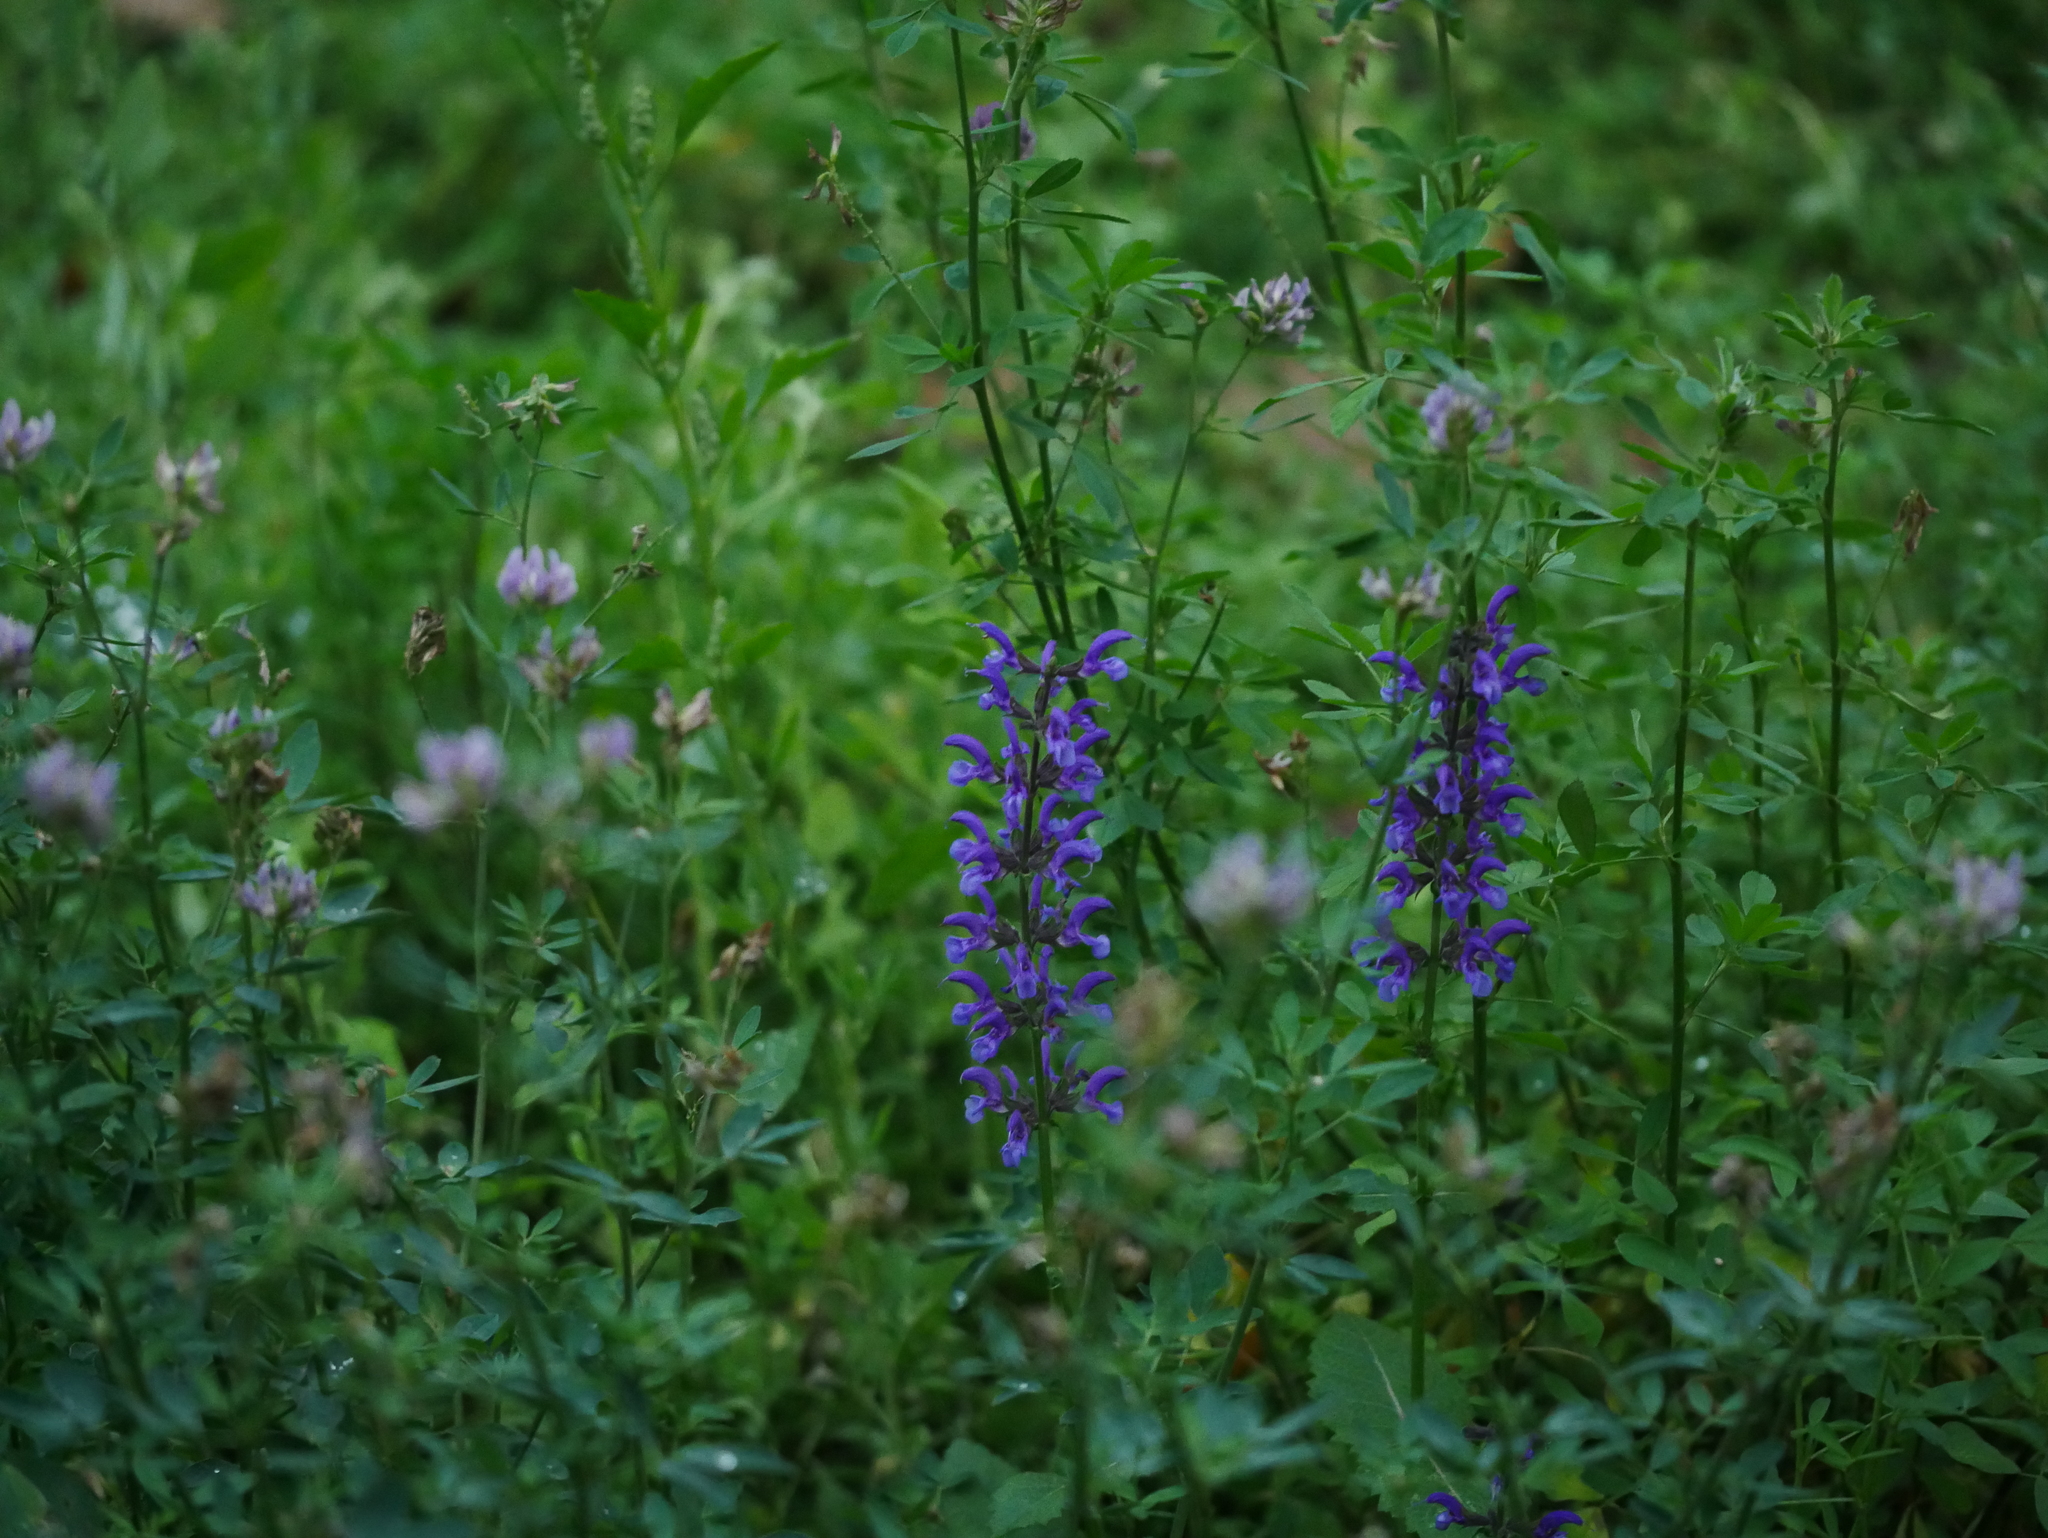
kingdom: Plantae
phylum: Tracheophyta
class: Magnoliopsida
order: Lamiales
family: Lamiaceae
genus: Salvia
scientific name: Salvia pratensis
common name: Meadow sage
